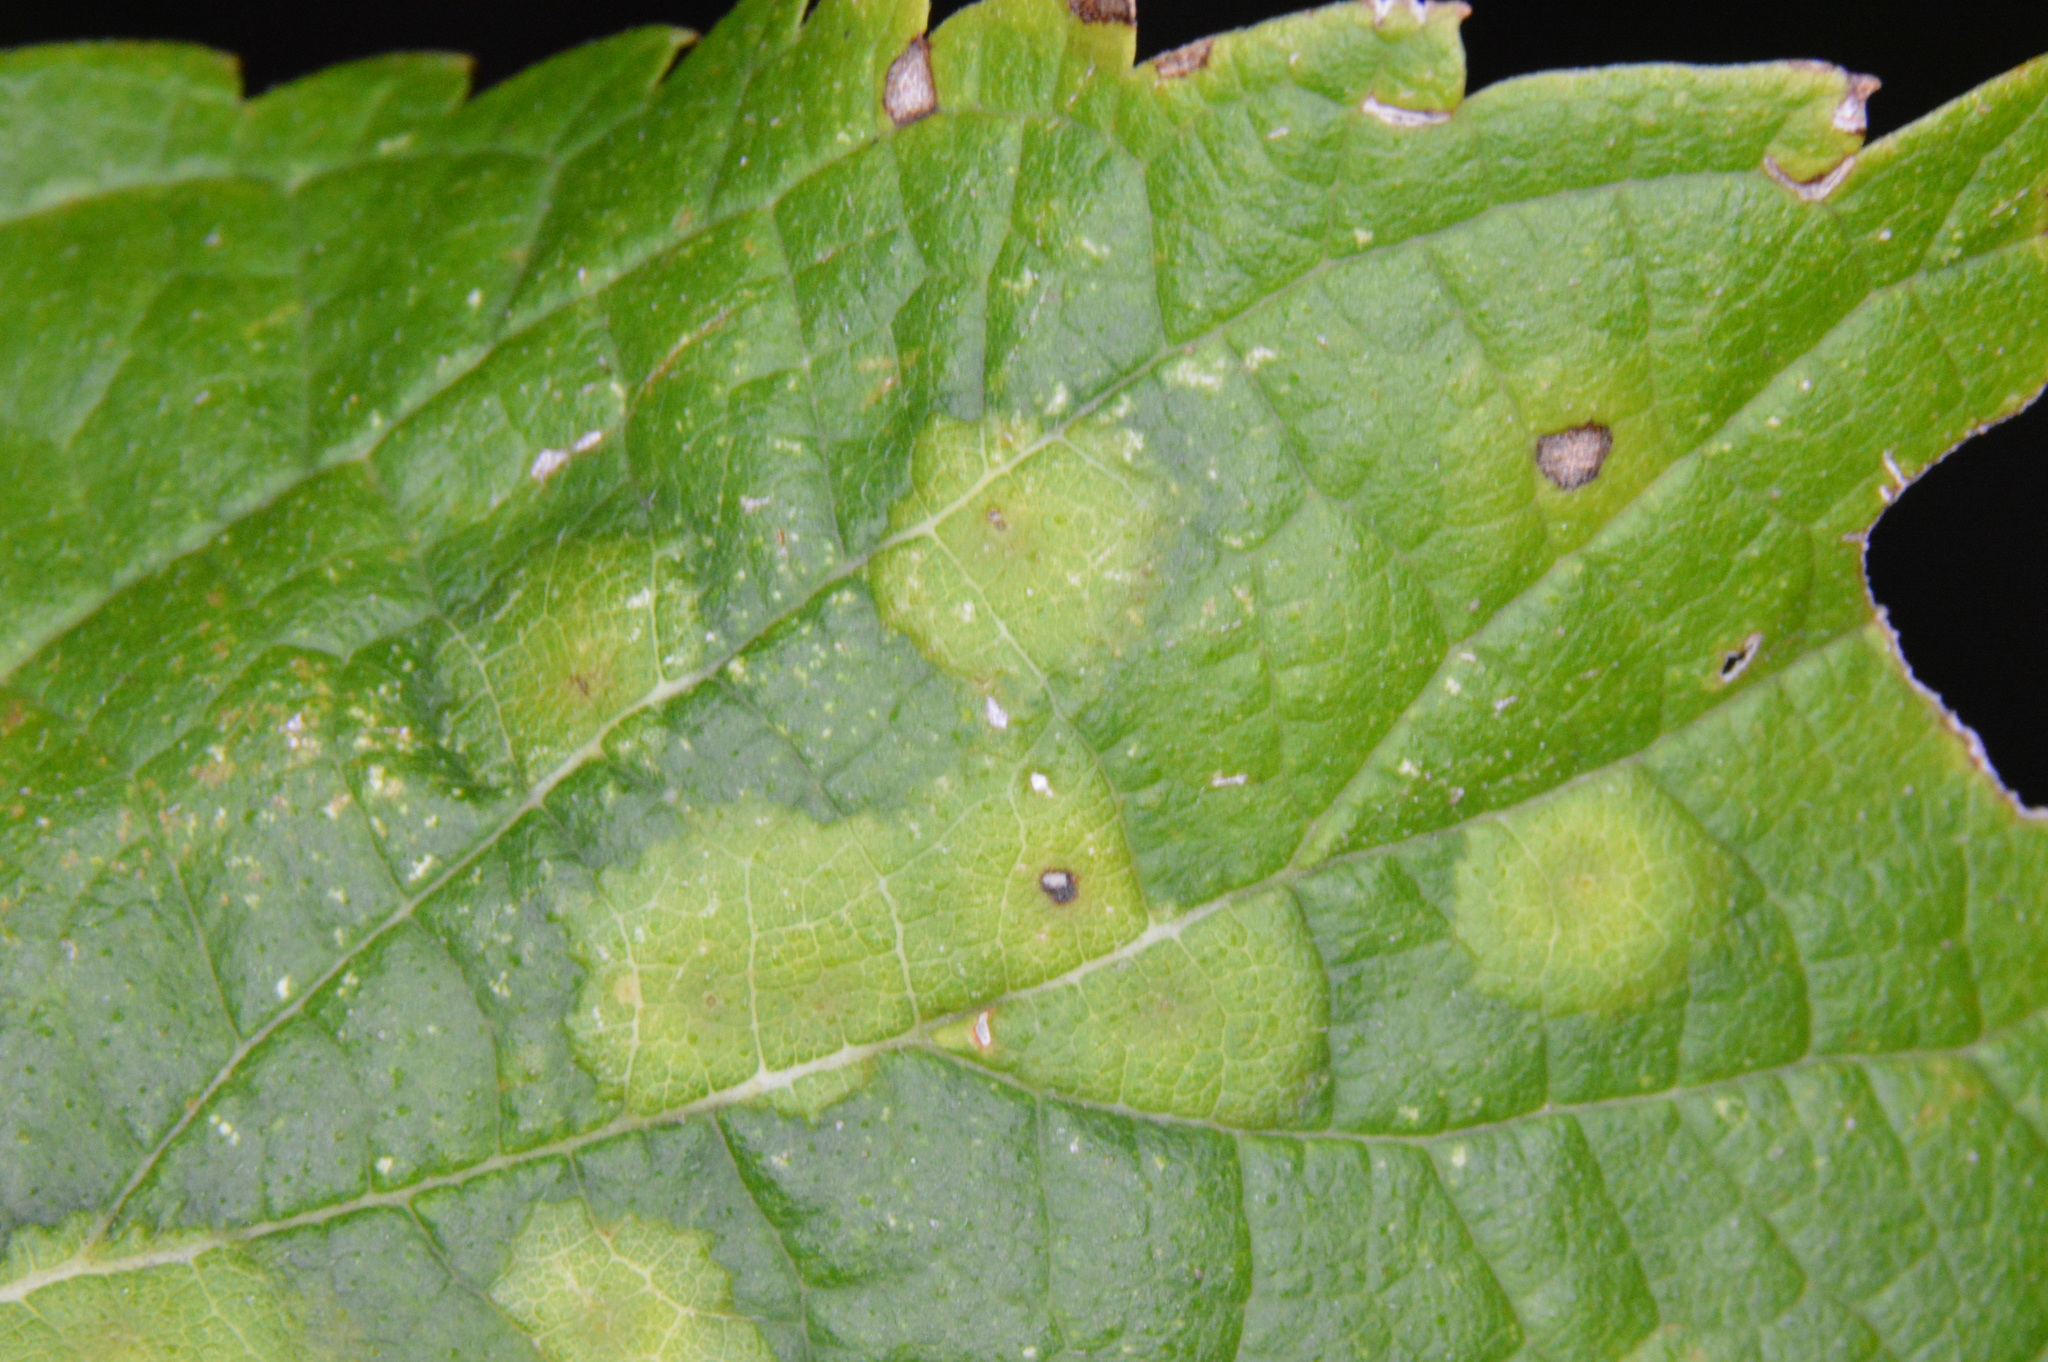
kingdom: Animalia
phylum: Arthropoda
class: Insecta
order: Hemiptera
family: Aphalaridae
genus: Pachypsylla
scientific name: Pachypsylla celtidisvesicula
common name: Hackberry blister gall psyllid
